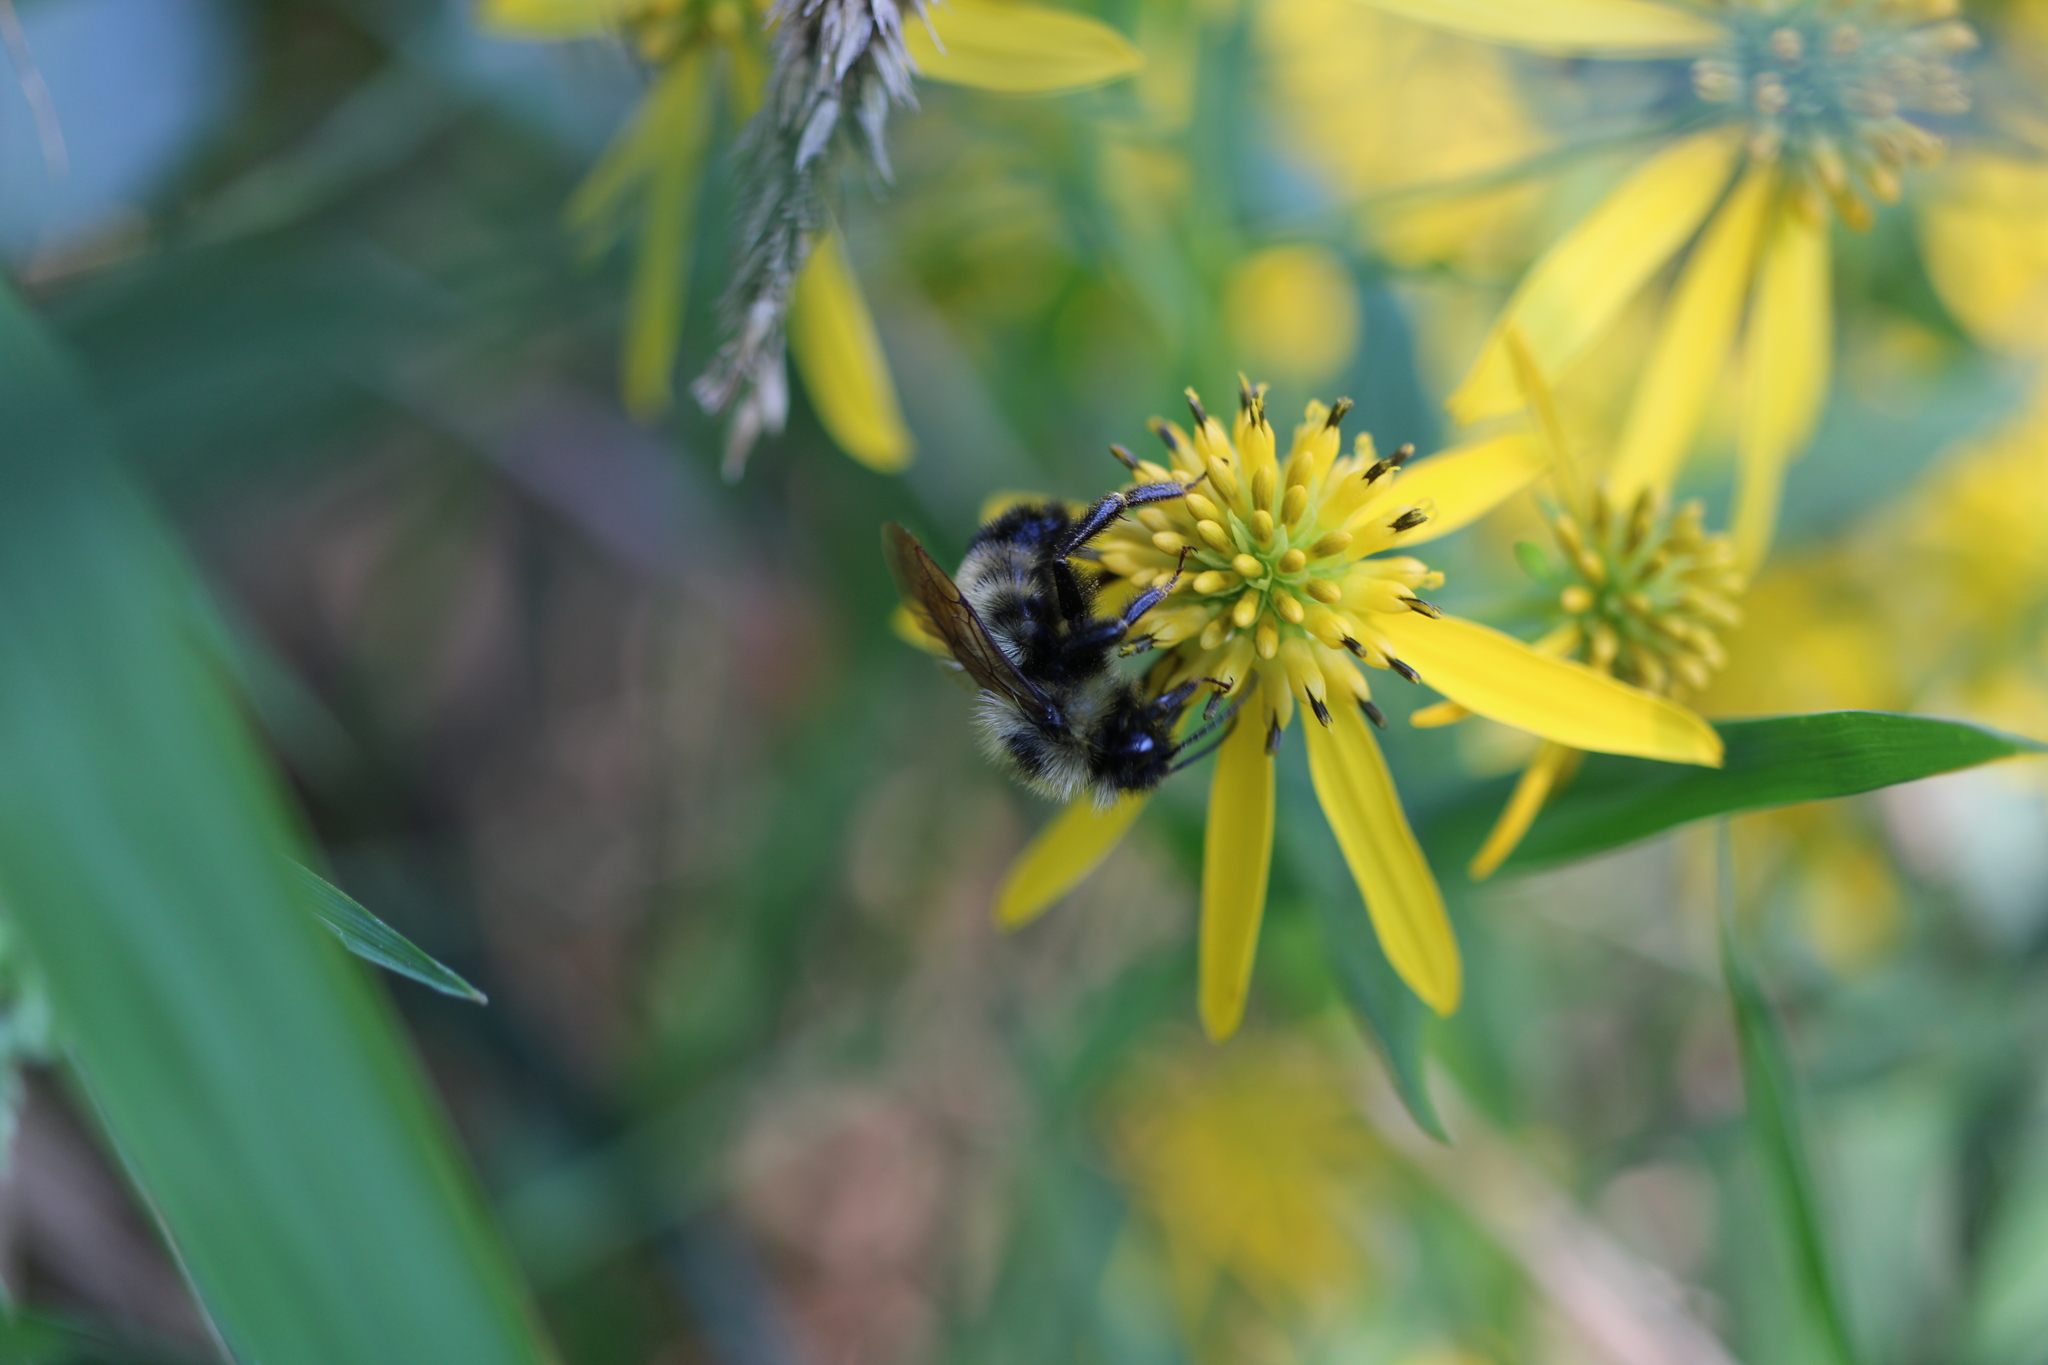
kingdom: Animalia
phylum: Arthropoda
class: Insecta
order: Hymenoptera
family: Apidae
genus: Bombus
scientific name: Bombus citrinus
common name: Lemon cuckoo bumble bee
